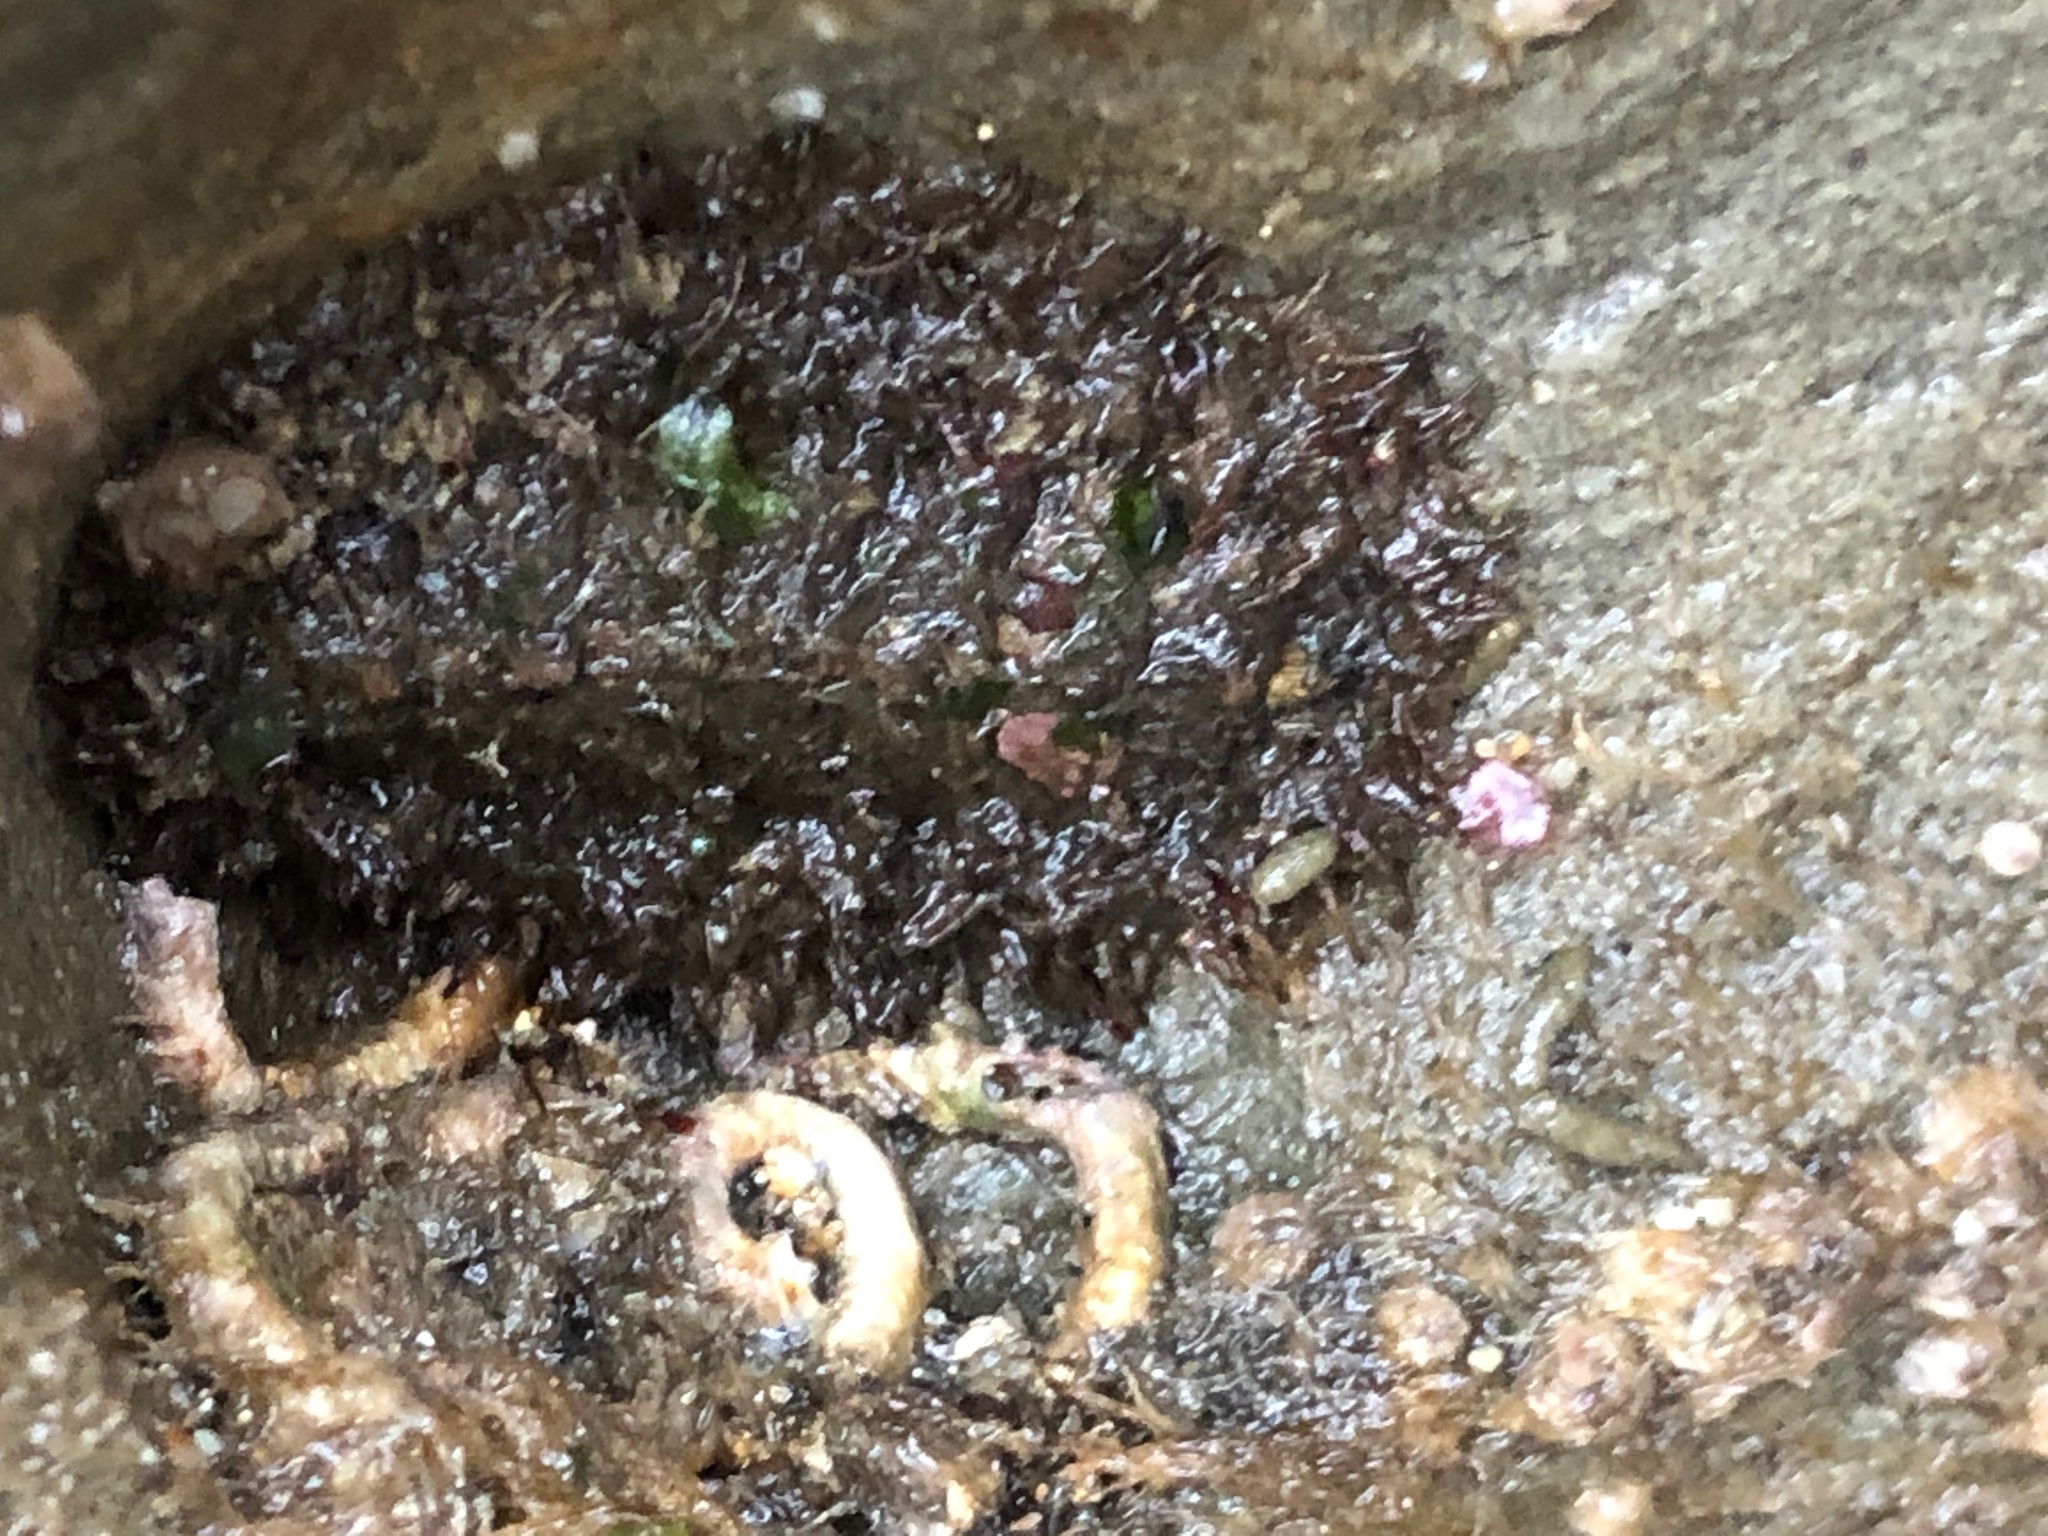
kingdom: Animalia
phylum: Mollusca
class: Polyplacophora
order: Chitonida
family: Mopaliidae
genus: Mopalia
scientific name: Mopalia muscosa
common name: Mossy chiton
